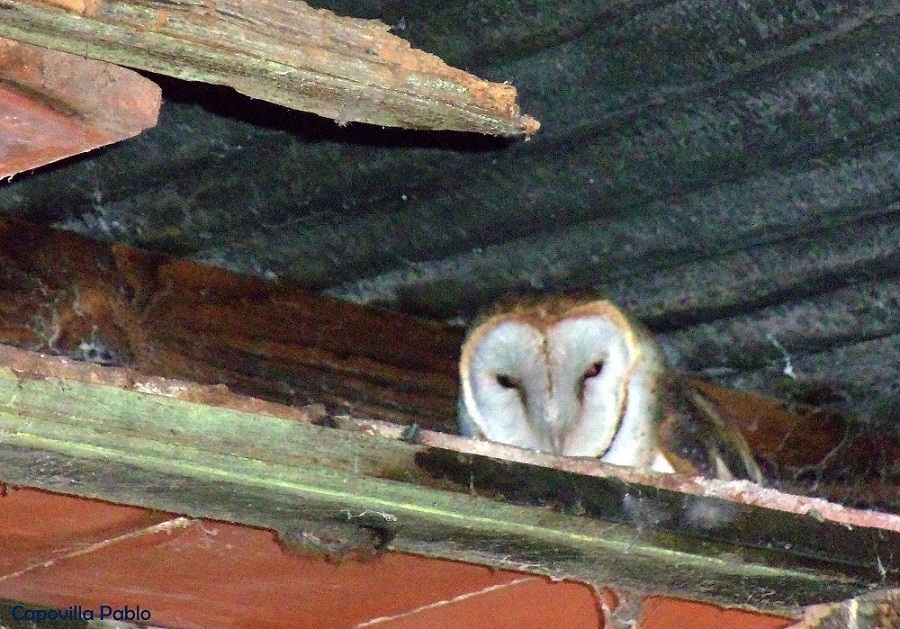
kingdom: Animalia
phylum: Chordata
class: Aves
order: Strigiformes
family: Tytonidae
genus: Tyto
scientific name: Tyto alba
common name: Barn owl
